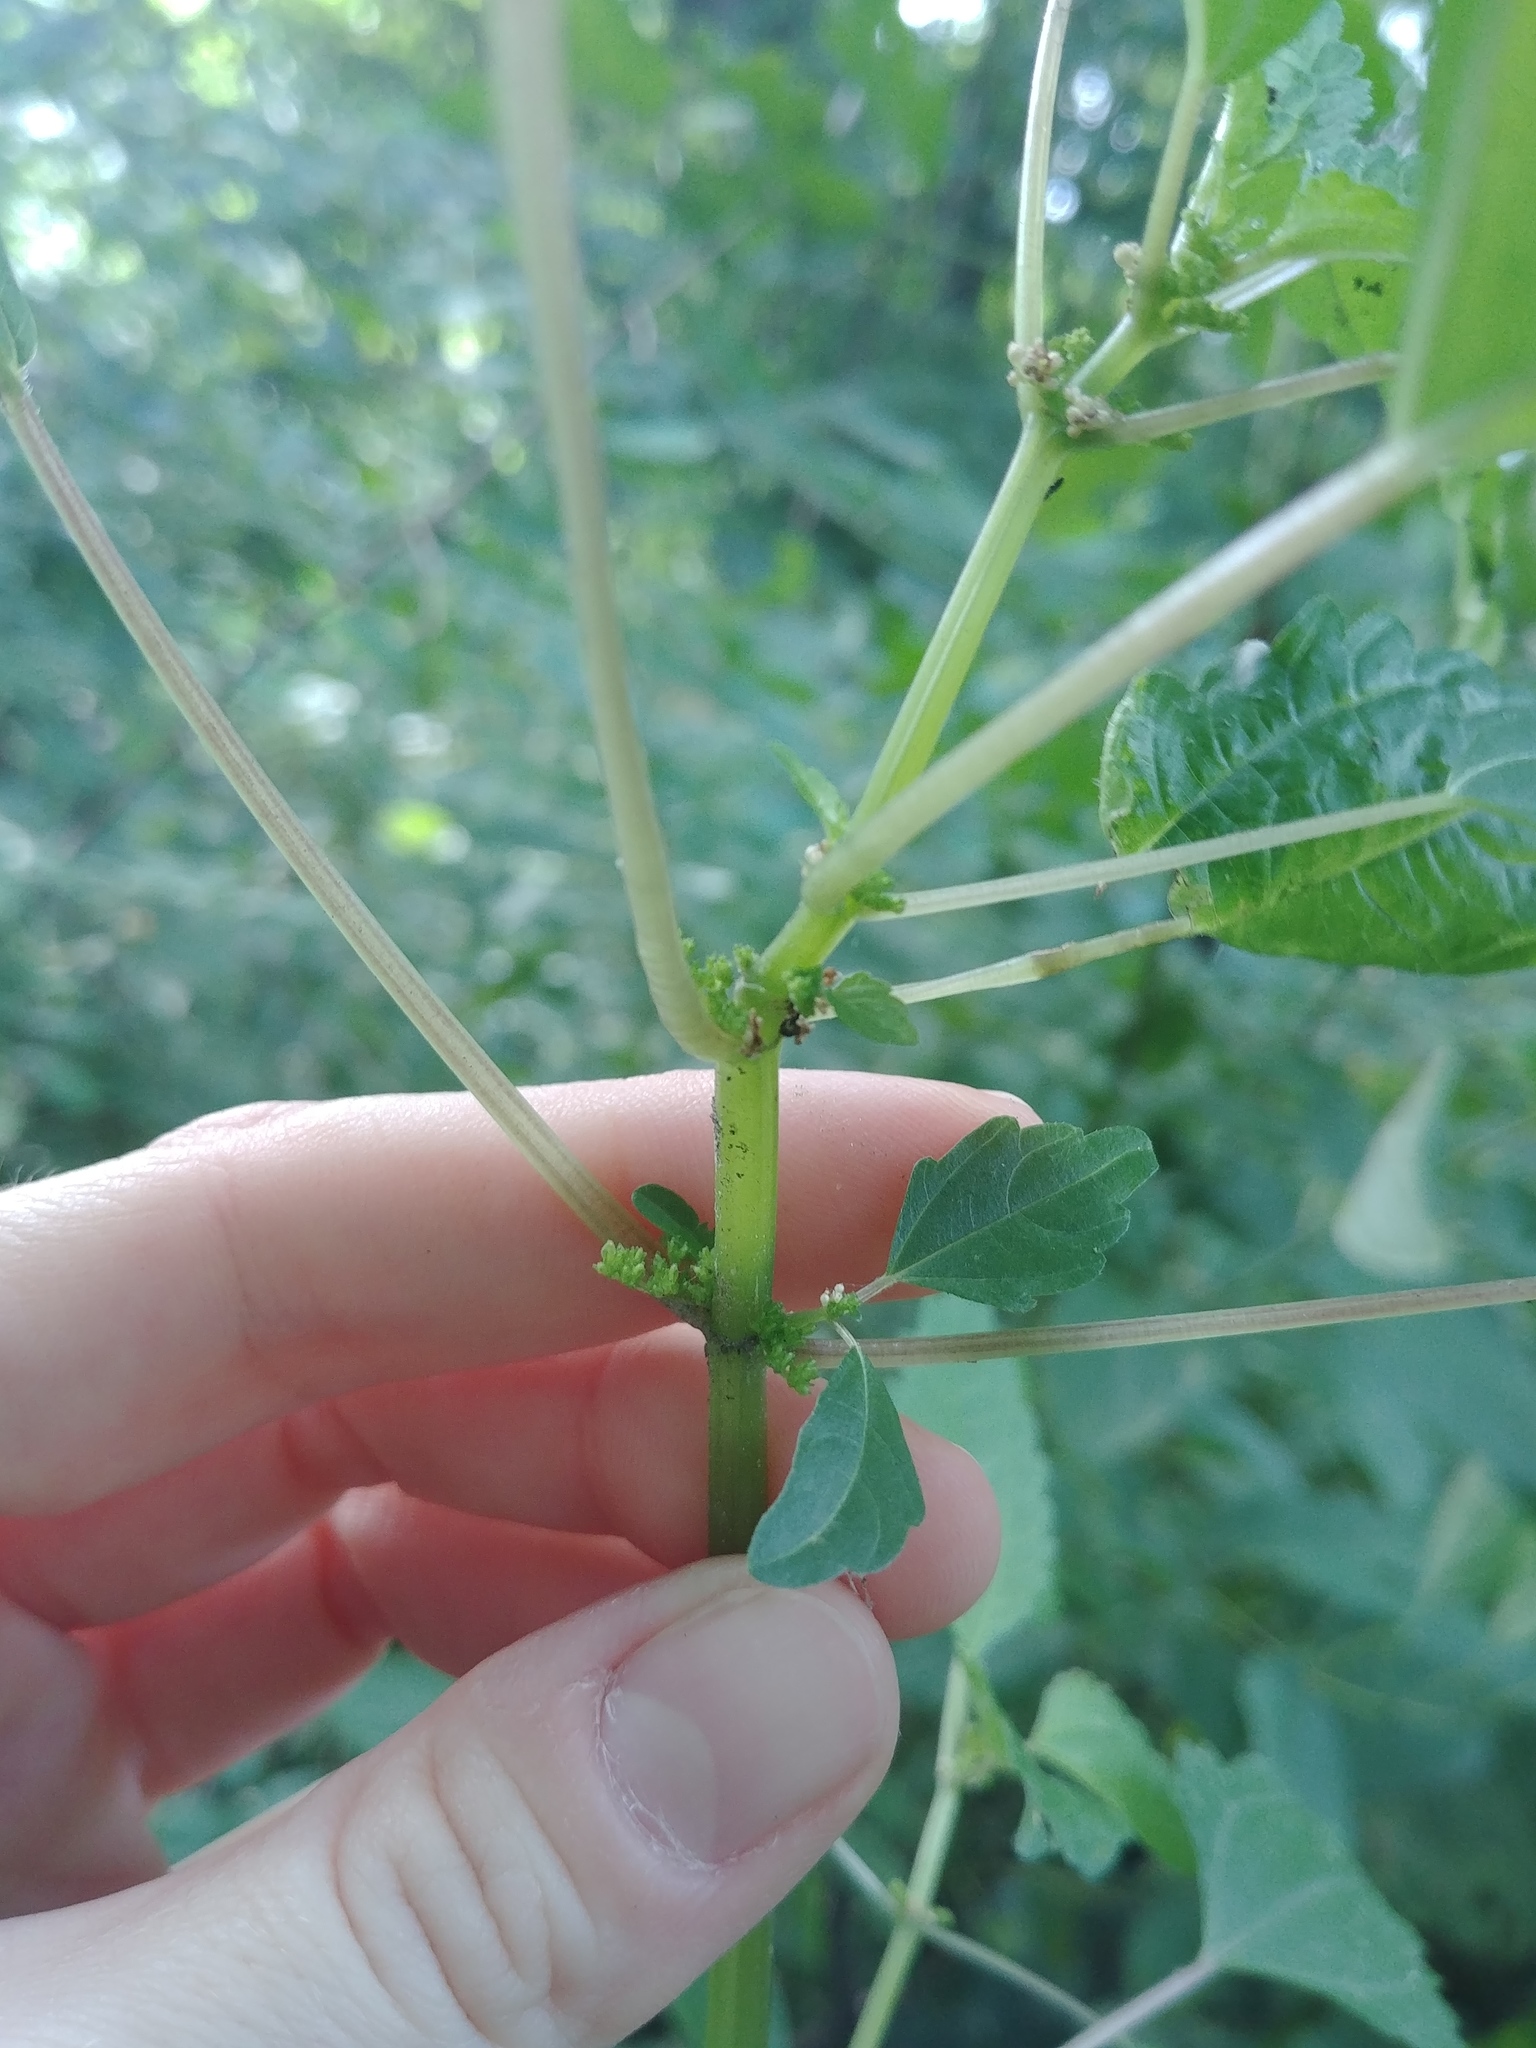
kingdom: Plantae
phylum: Tracheophyta
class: Magnoliopsida
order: Rosales
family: Urticaceae
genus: Pilea
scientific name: Pilea pumila
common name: Clearweed
